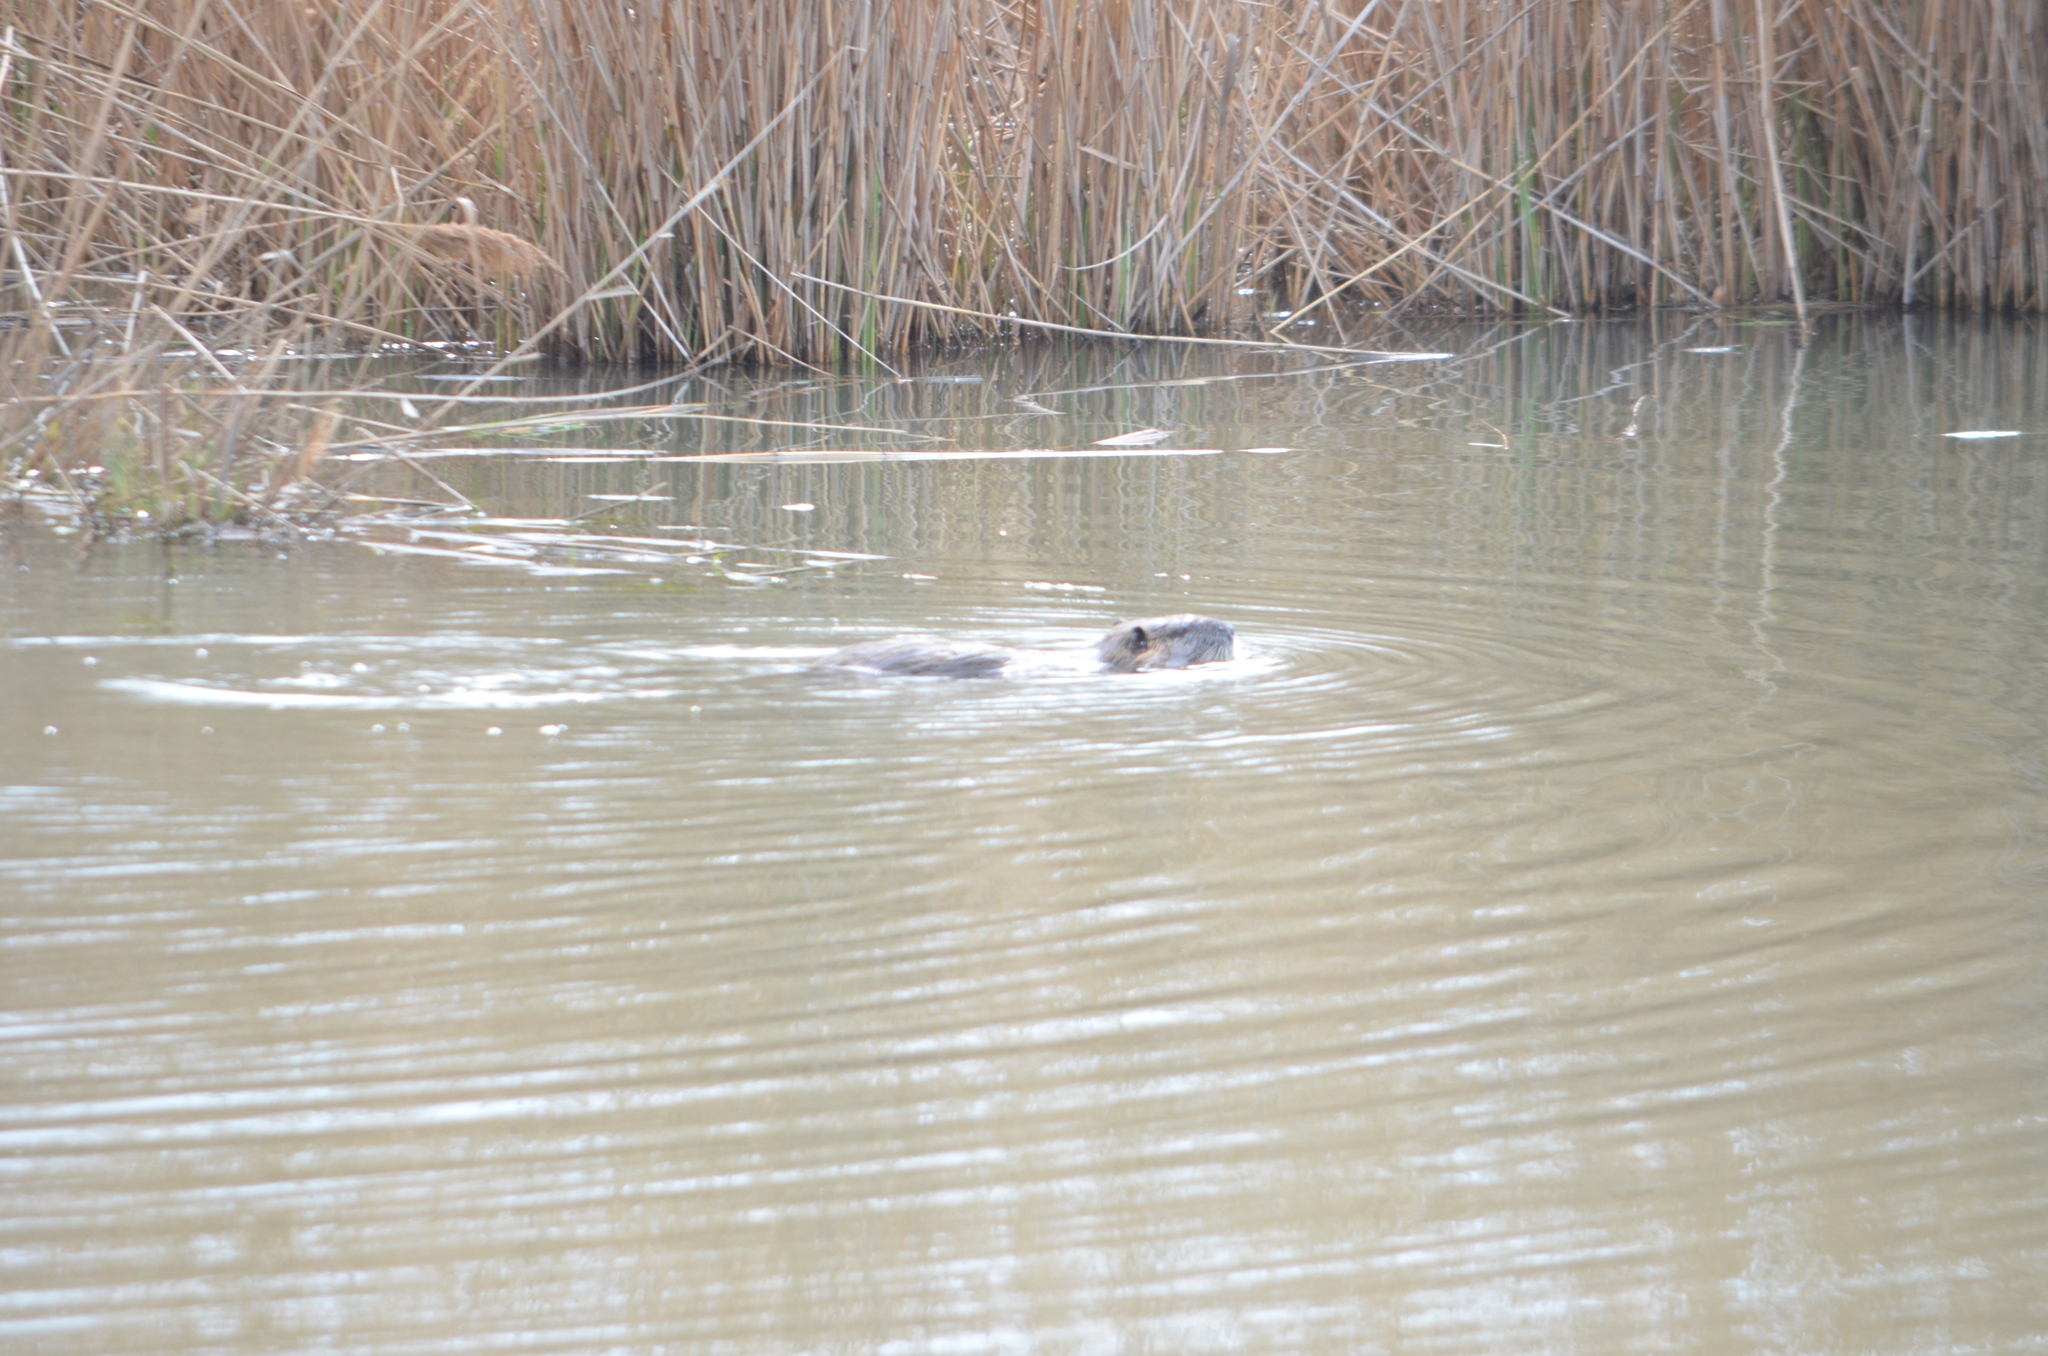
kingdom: Animalia
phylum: Chordata
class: Mammalia
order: Rodentia
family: Myocastoridae
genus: Myocastor
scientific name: Myocastor coypus
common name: Coypu
